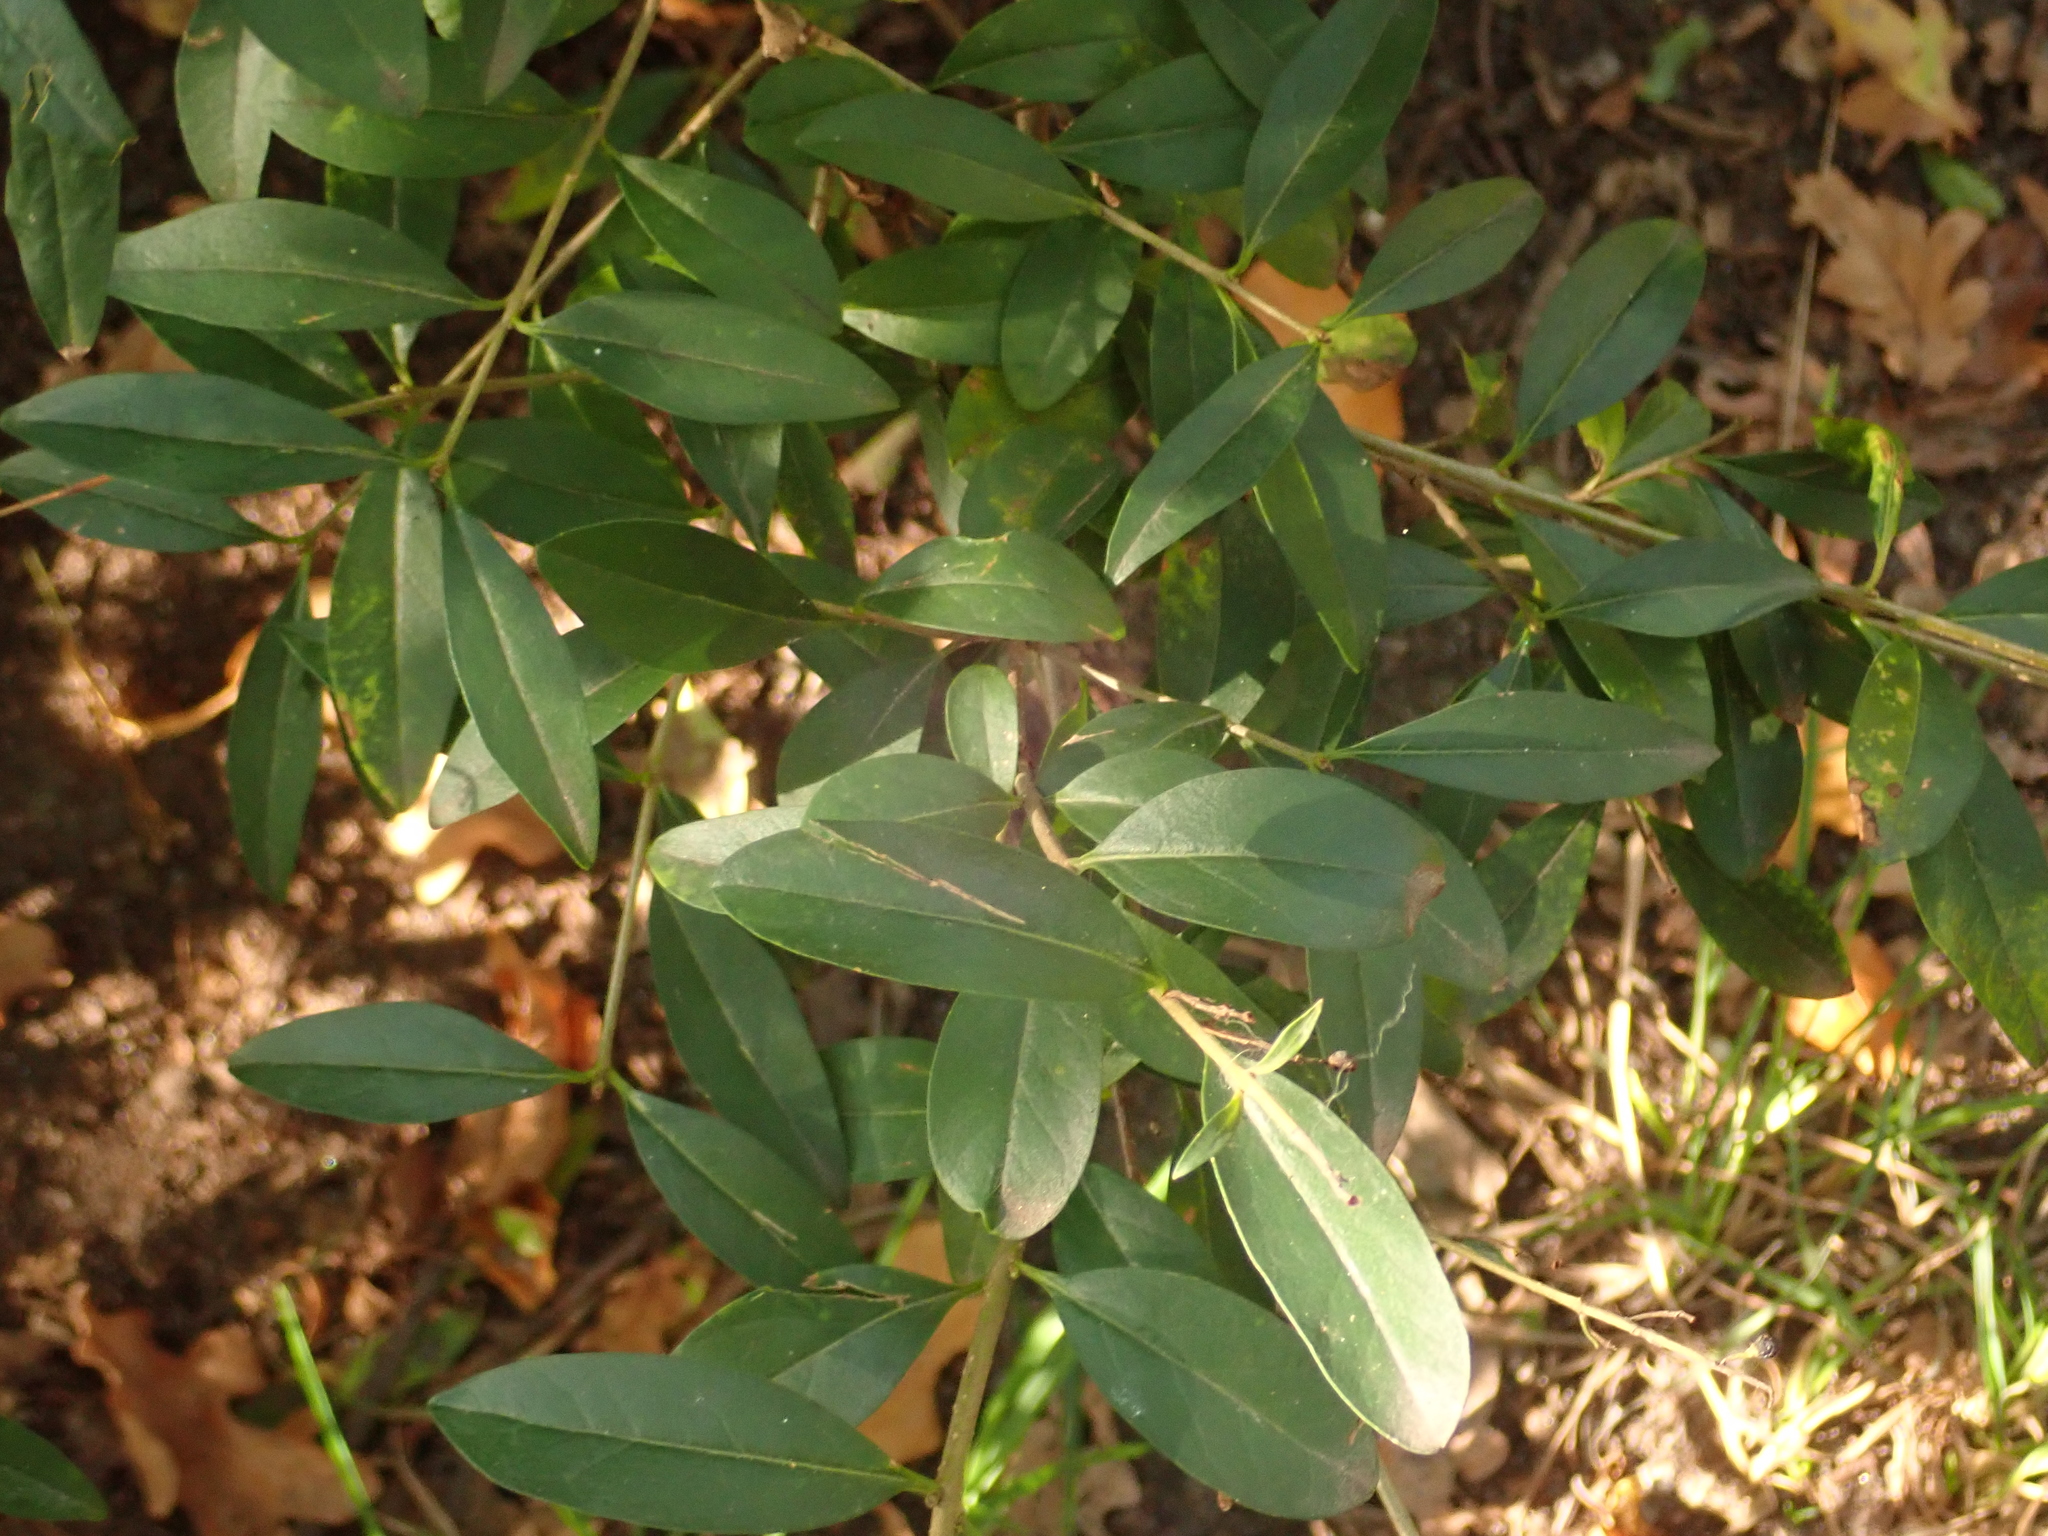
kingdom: Plantae
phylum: Tracheophyta
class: Magnoliopsida
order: Lamiales
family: Oleaceae
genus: Ligustrum
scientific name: Ligustrum vulgare
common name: Wild privet
